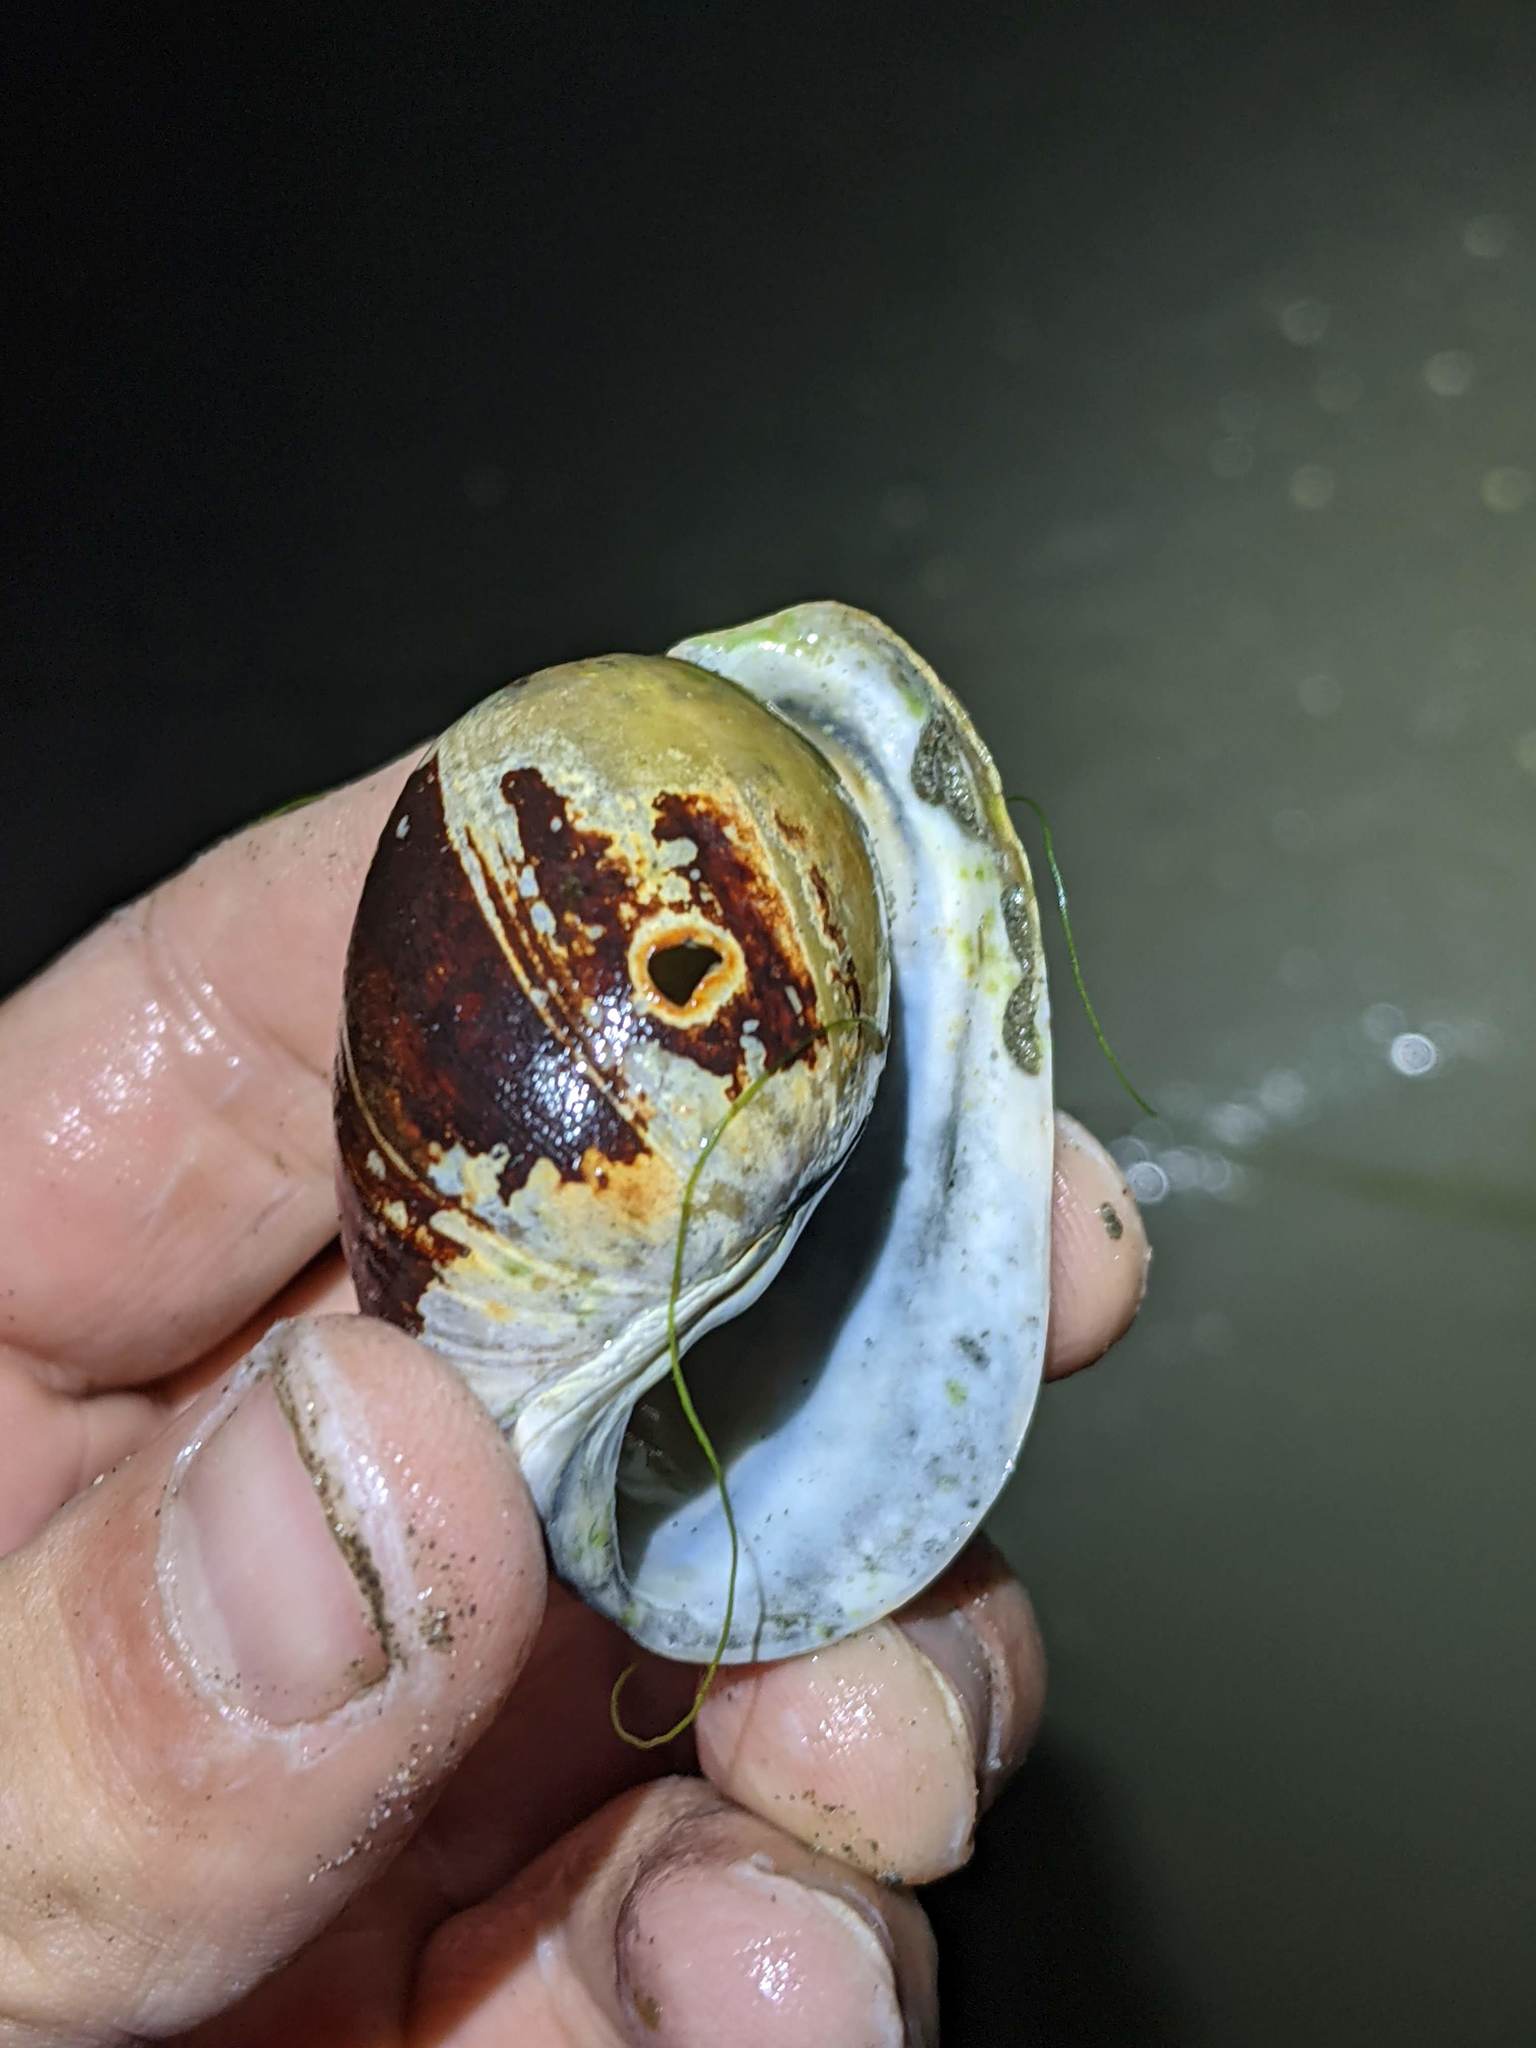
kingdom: Animalia
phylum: Mollusca
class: Gastropoda
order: Cephalaspidea
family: Bullidae
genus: Bulla
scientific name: Bulla gouldiana
